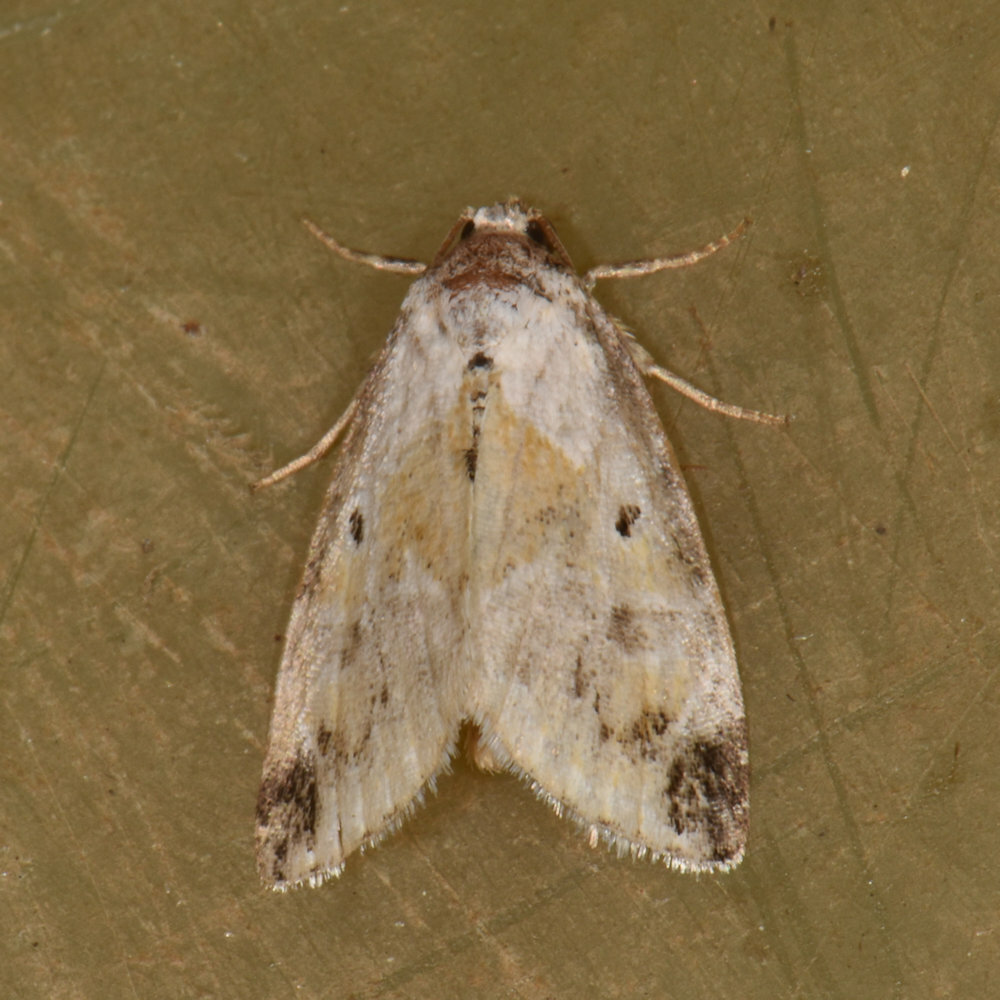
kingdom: Animalia
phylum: Arthropoda
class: Insecta
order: Lepidoptera
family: Noctuidae
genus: Maliattha
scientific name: Maliattha synochitis
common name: Black-dotted glyph
